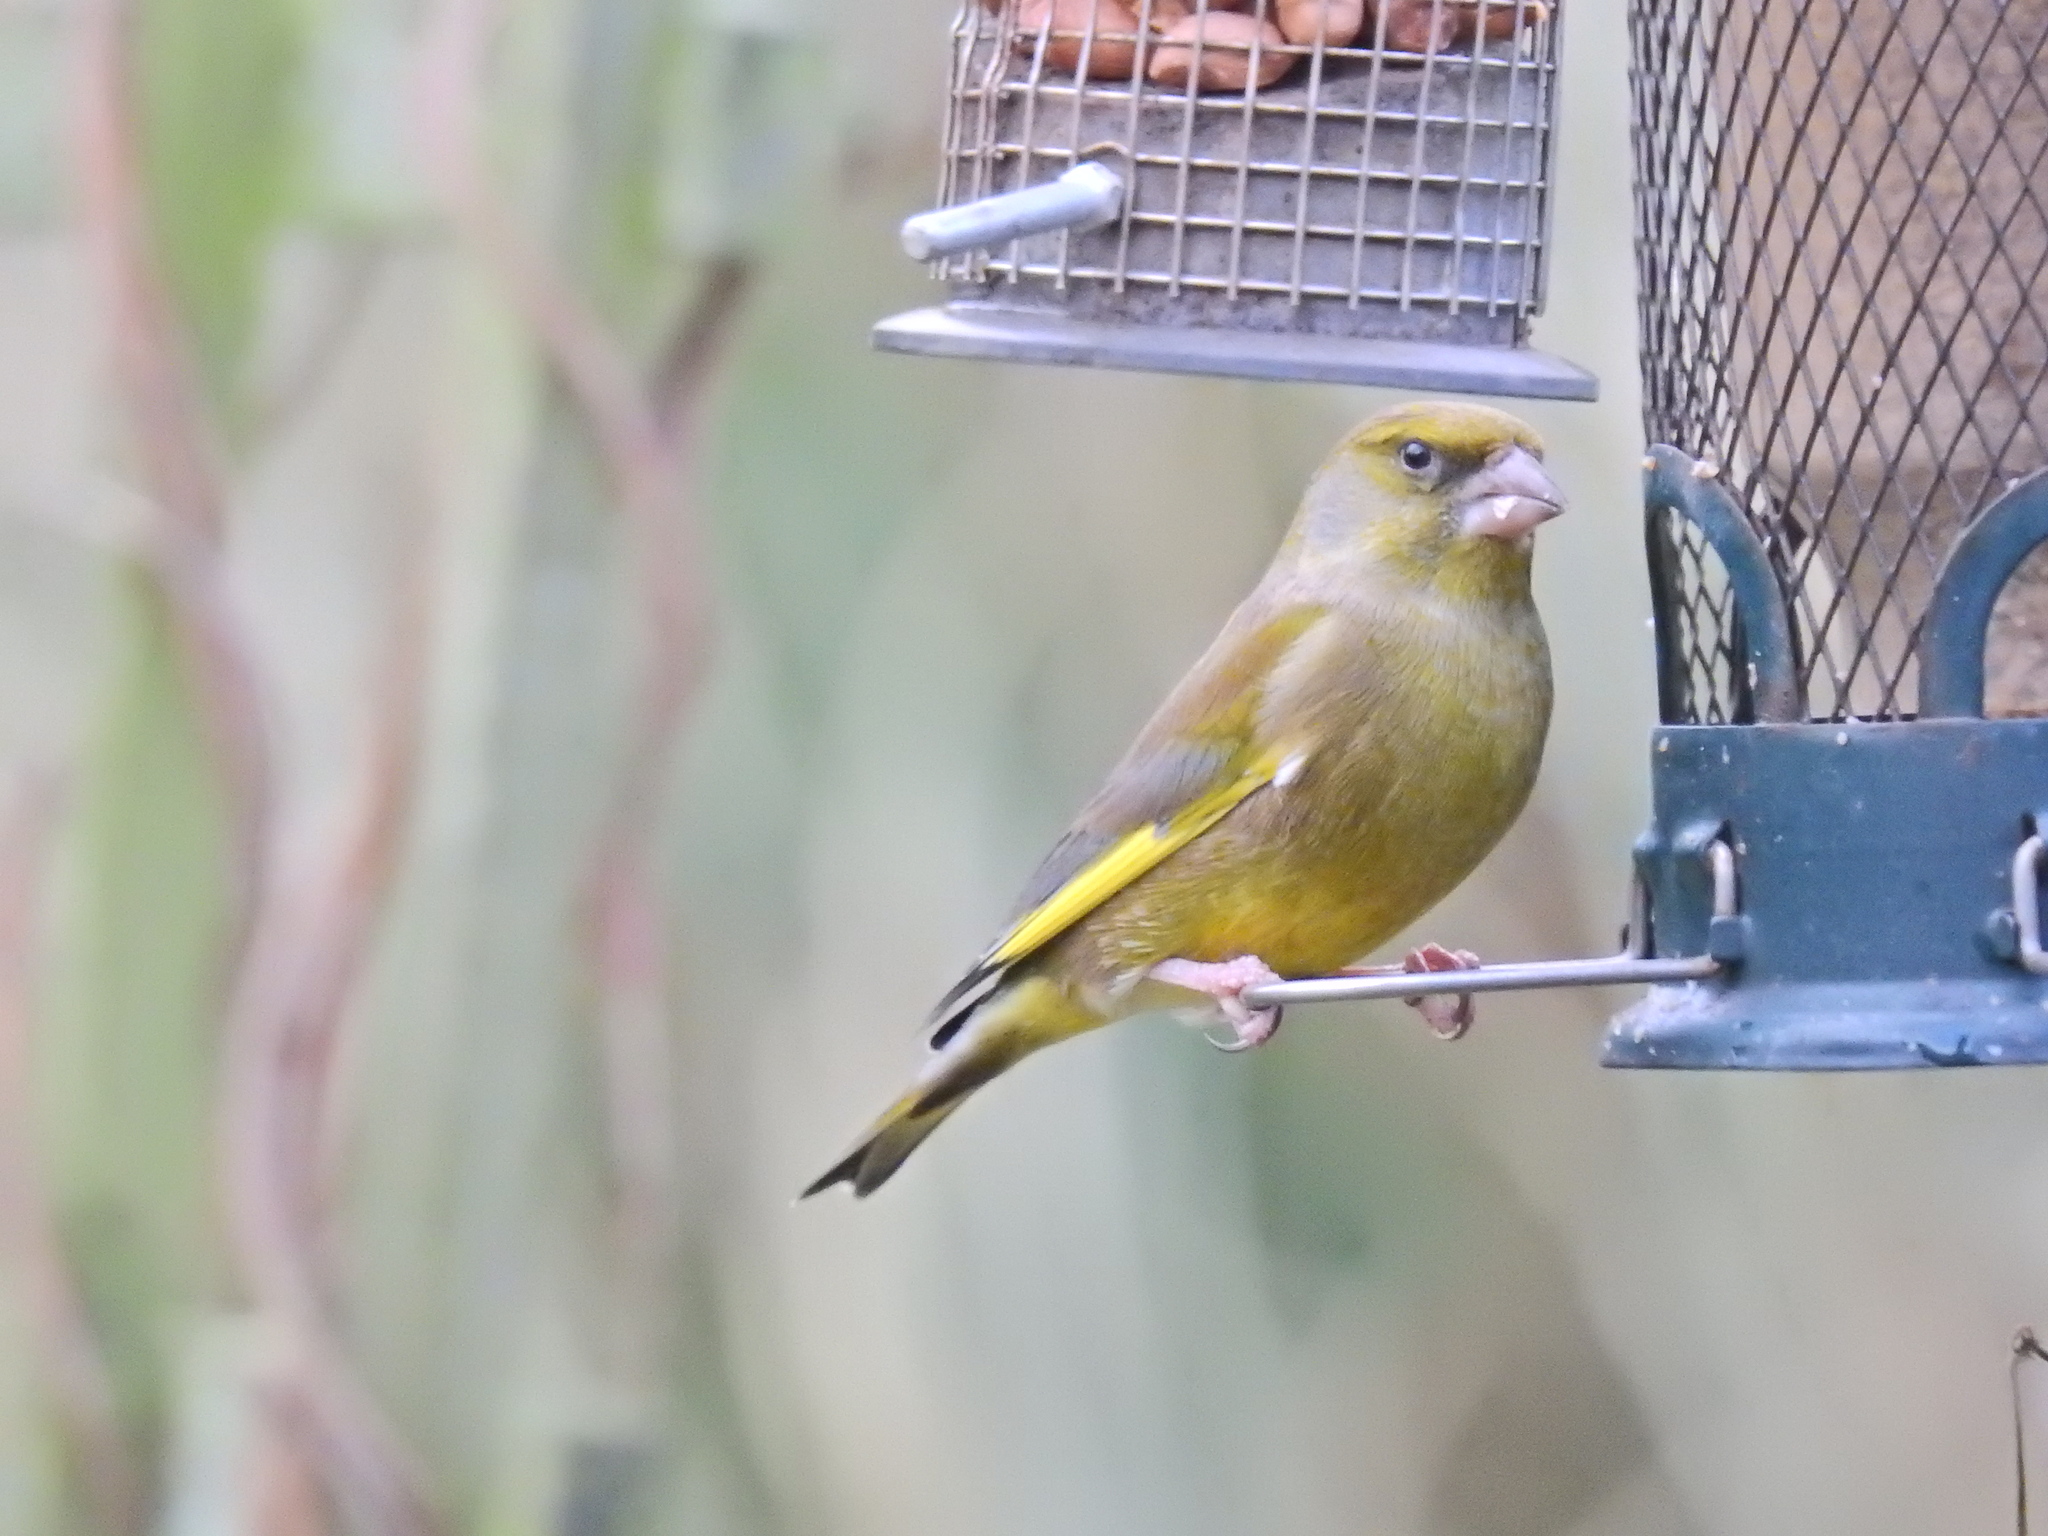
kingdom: Plantae
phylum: Tracheophyta
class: Liliopsida
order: Poales
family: Poaceae
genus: Chloris
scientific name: Chloris chloris
